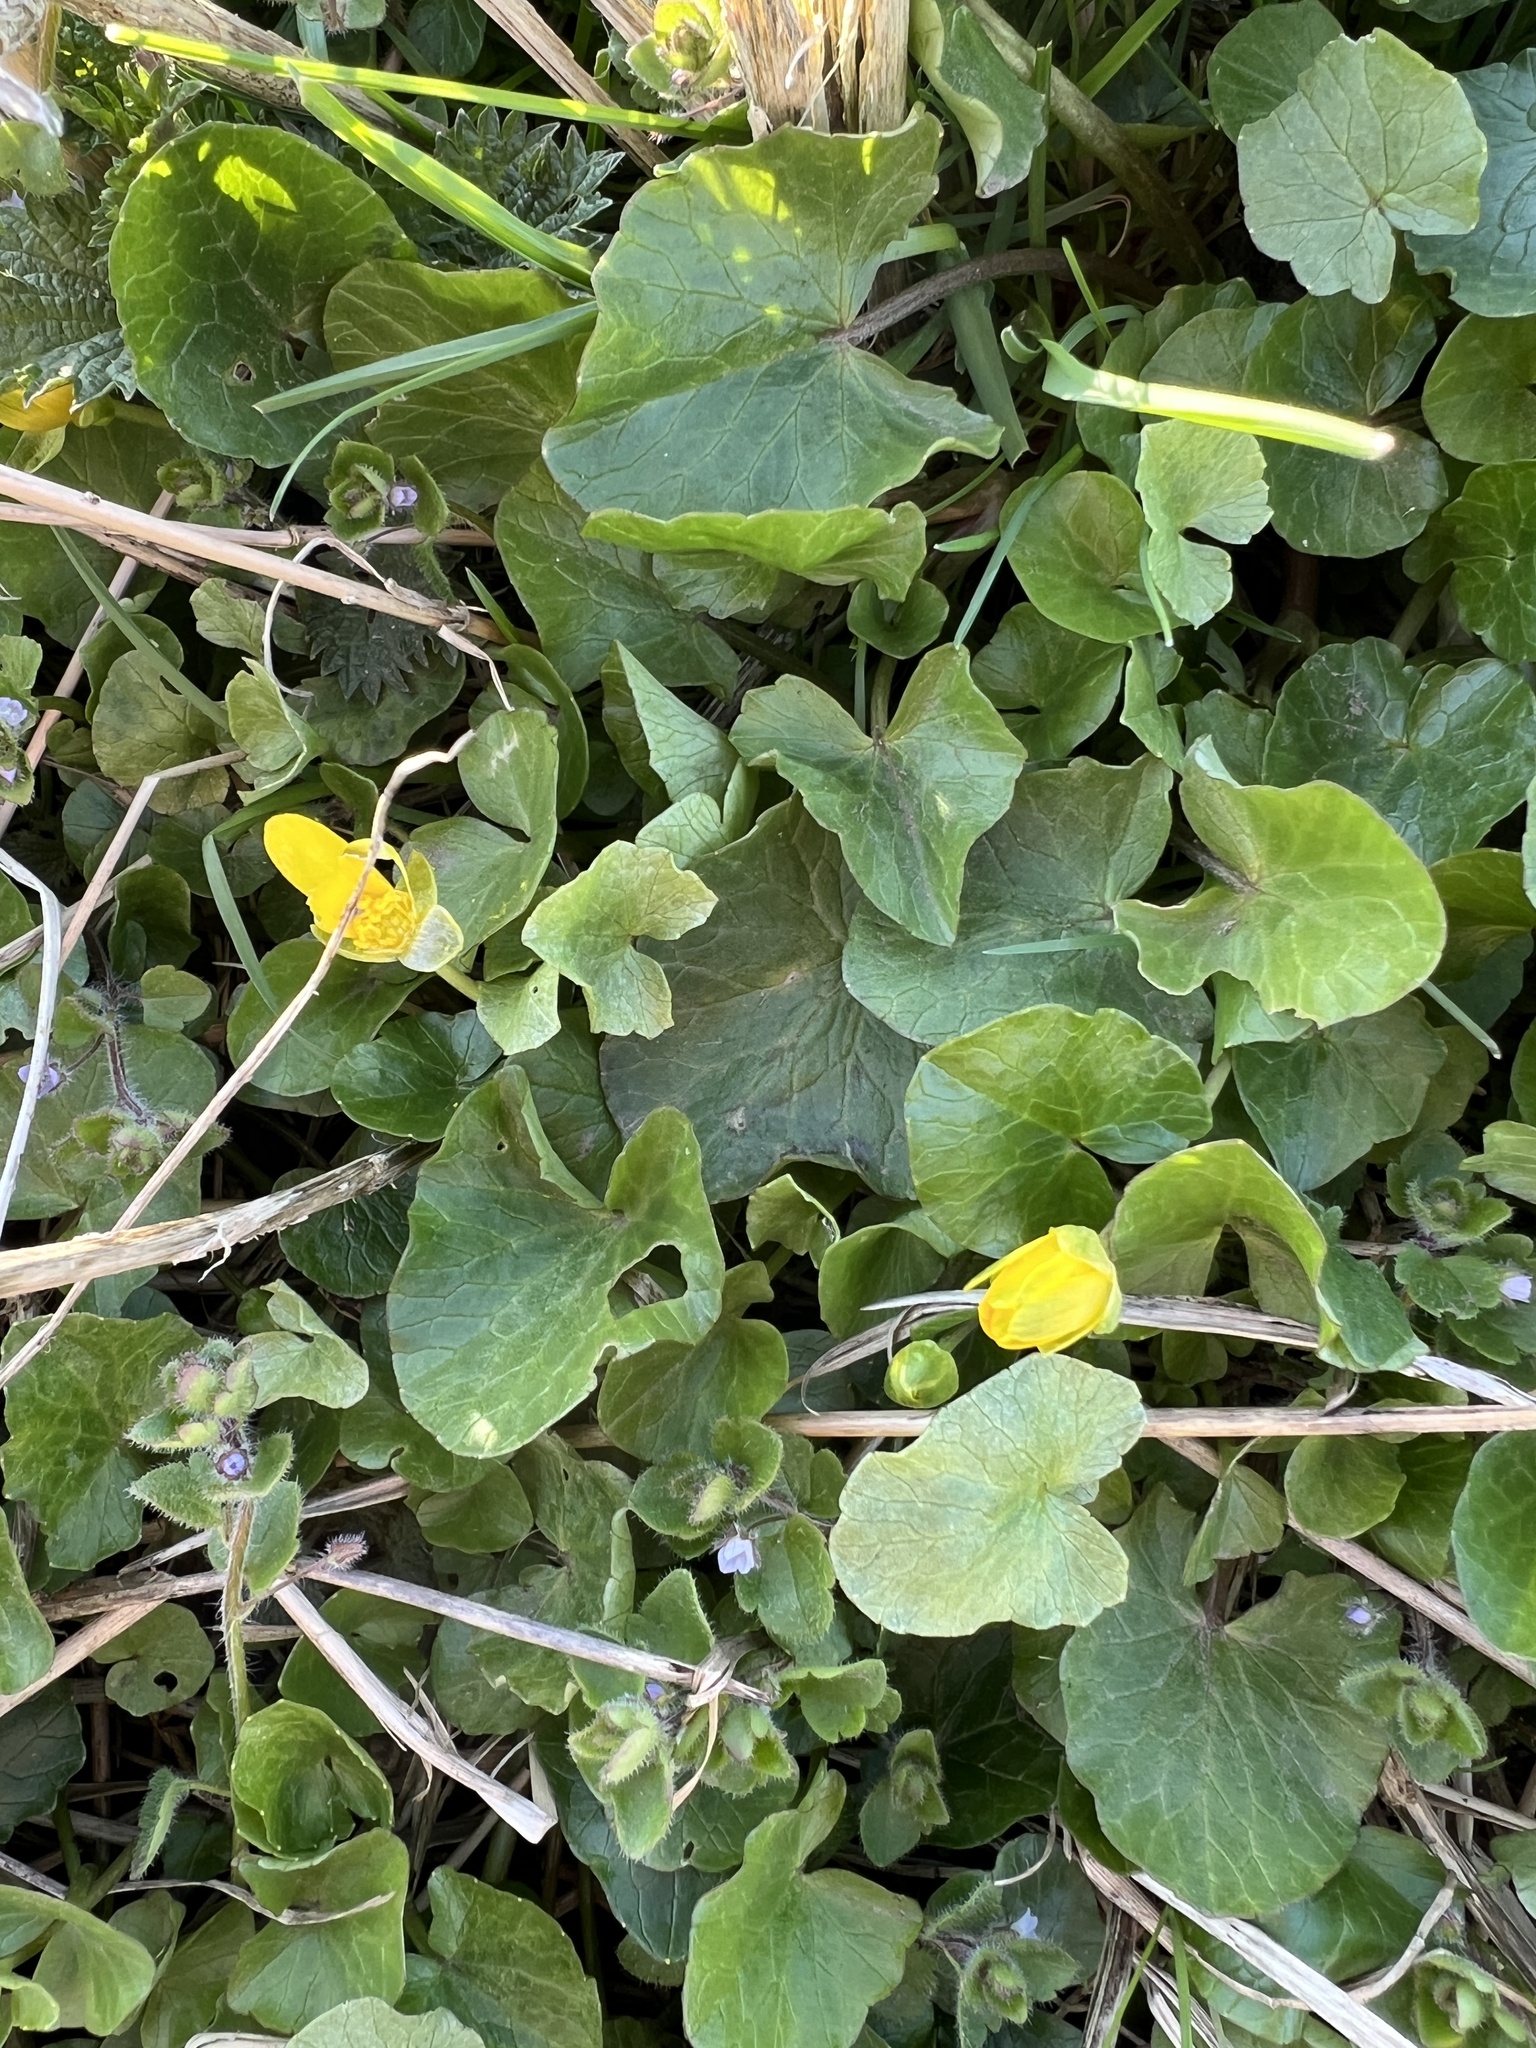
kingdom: Plantae
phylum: Tracheophyta
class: Magnoliopsida
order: Ranunculales
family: Ranunculaceae
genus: Ficaria
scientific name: Ficaria verna
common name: Lesser celandine
